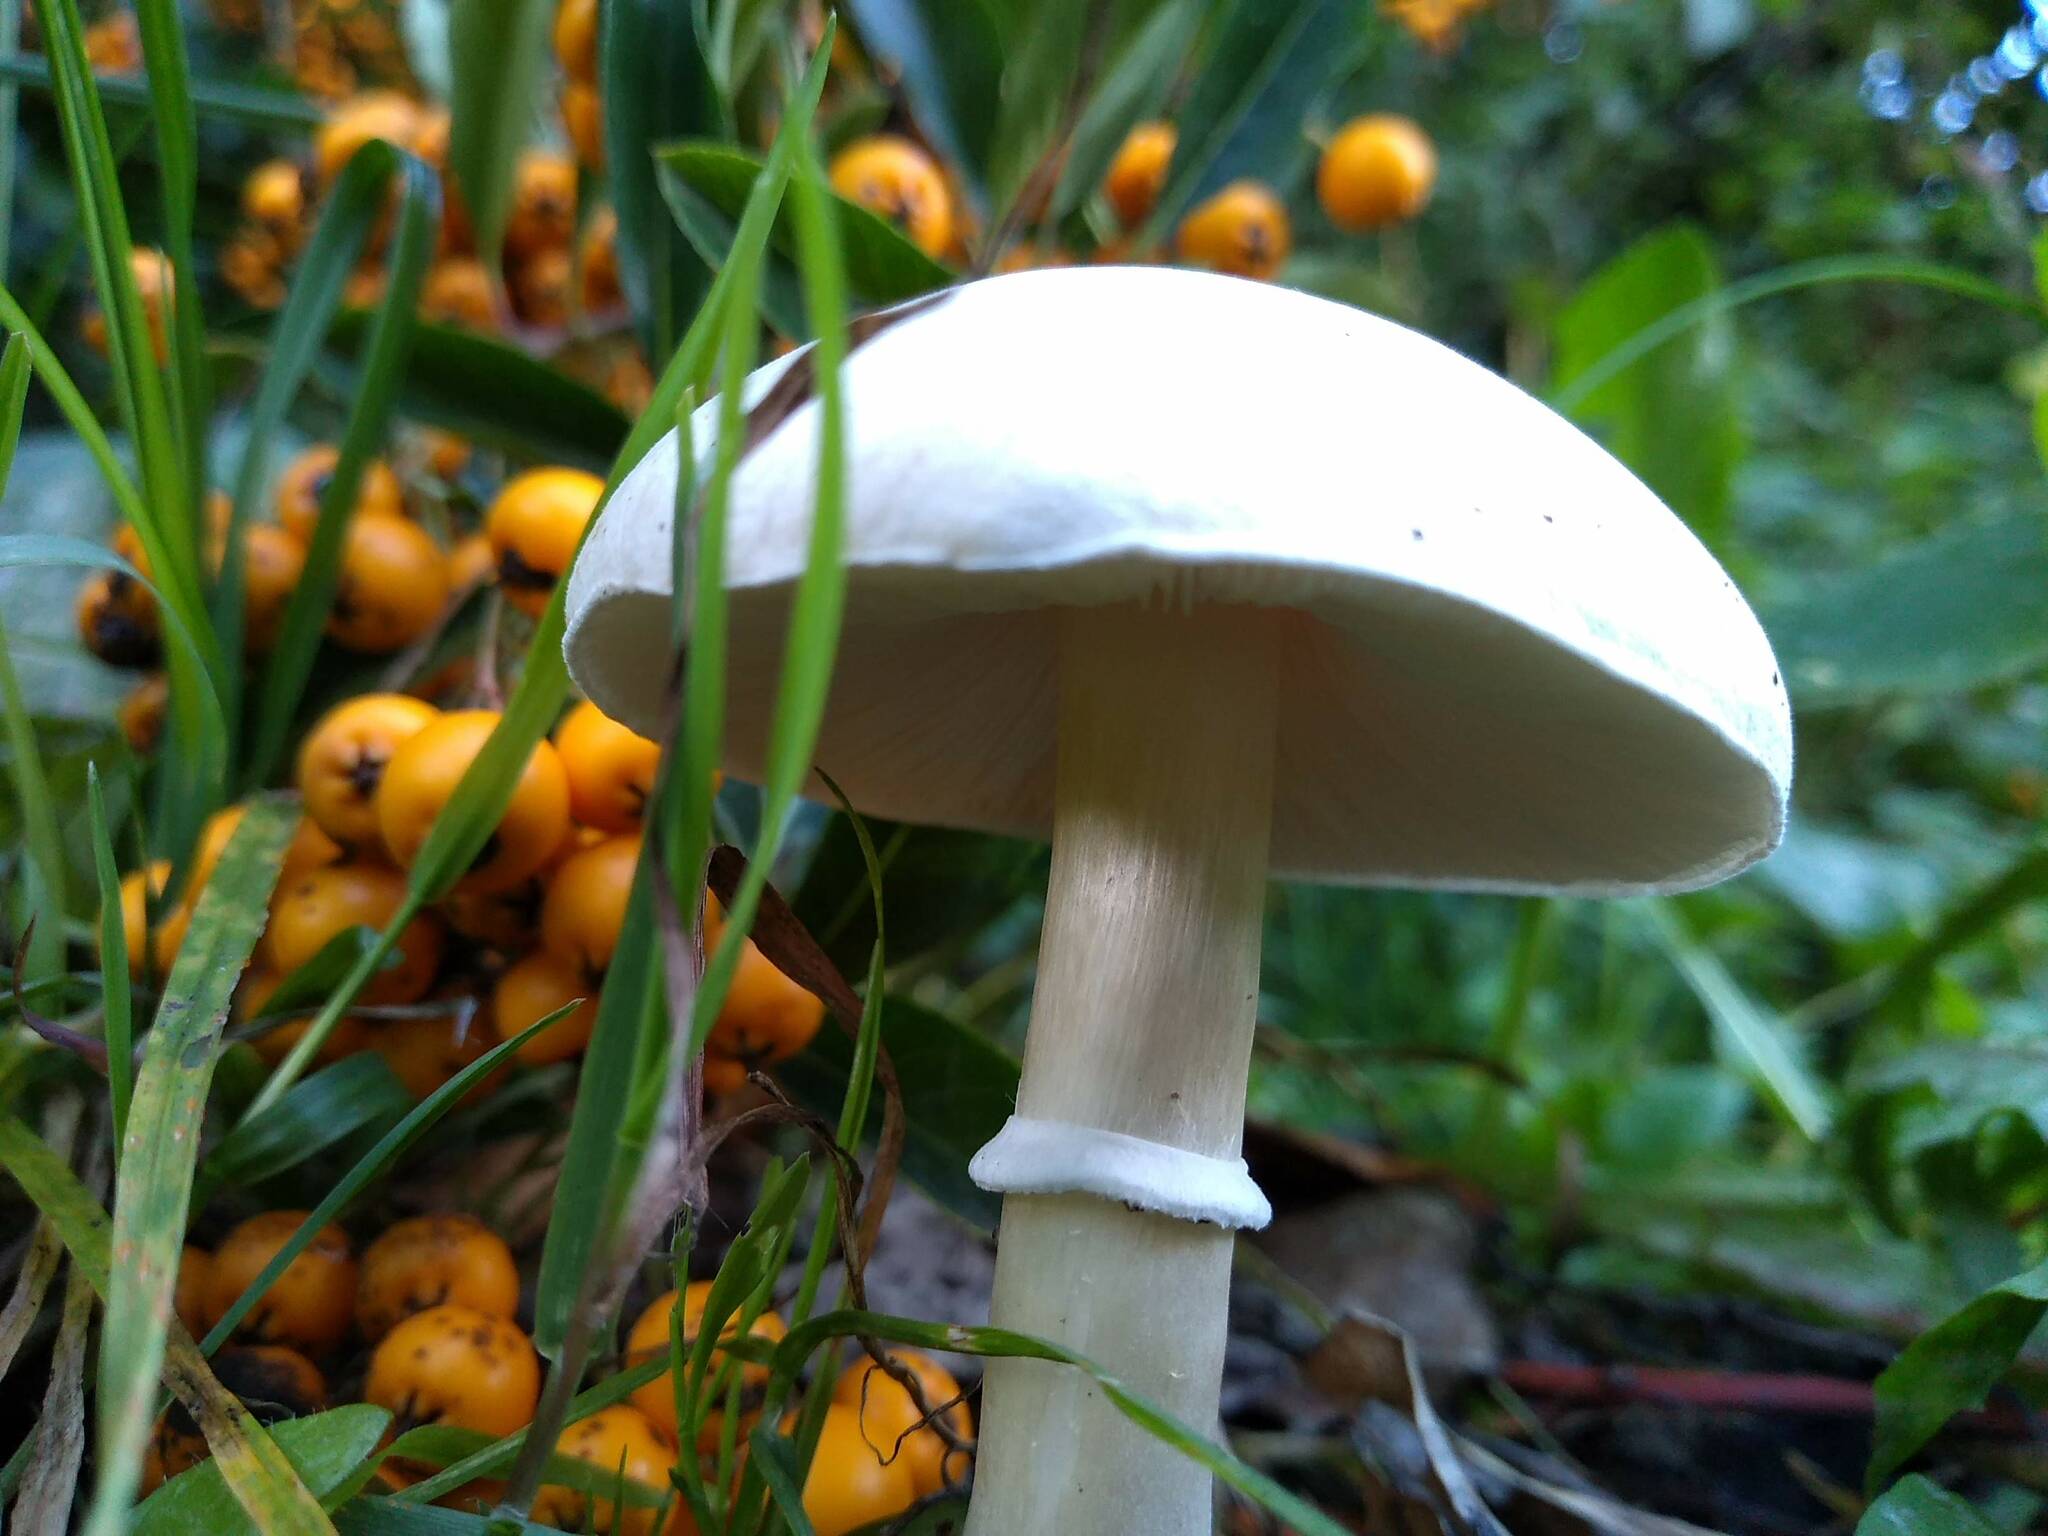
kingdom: Fungi
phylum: Basidiomycota
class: Agaricomycetes
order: Agaricales
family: Agaricaceae
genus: Leucoagaricus
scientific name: Leucoagaricus leucothites
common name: White dapperling
